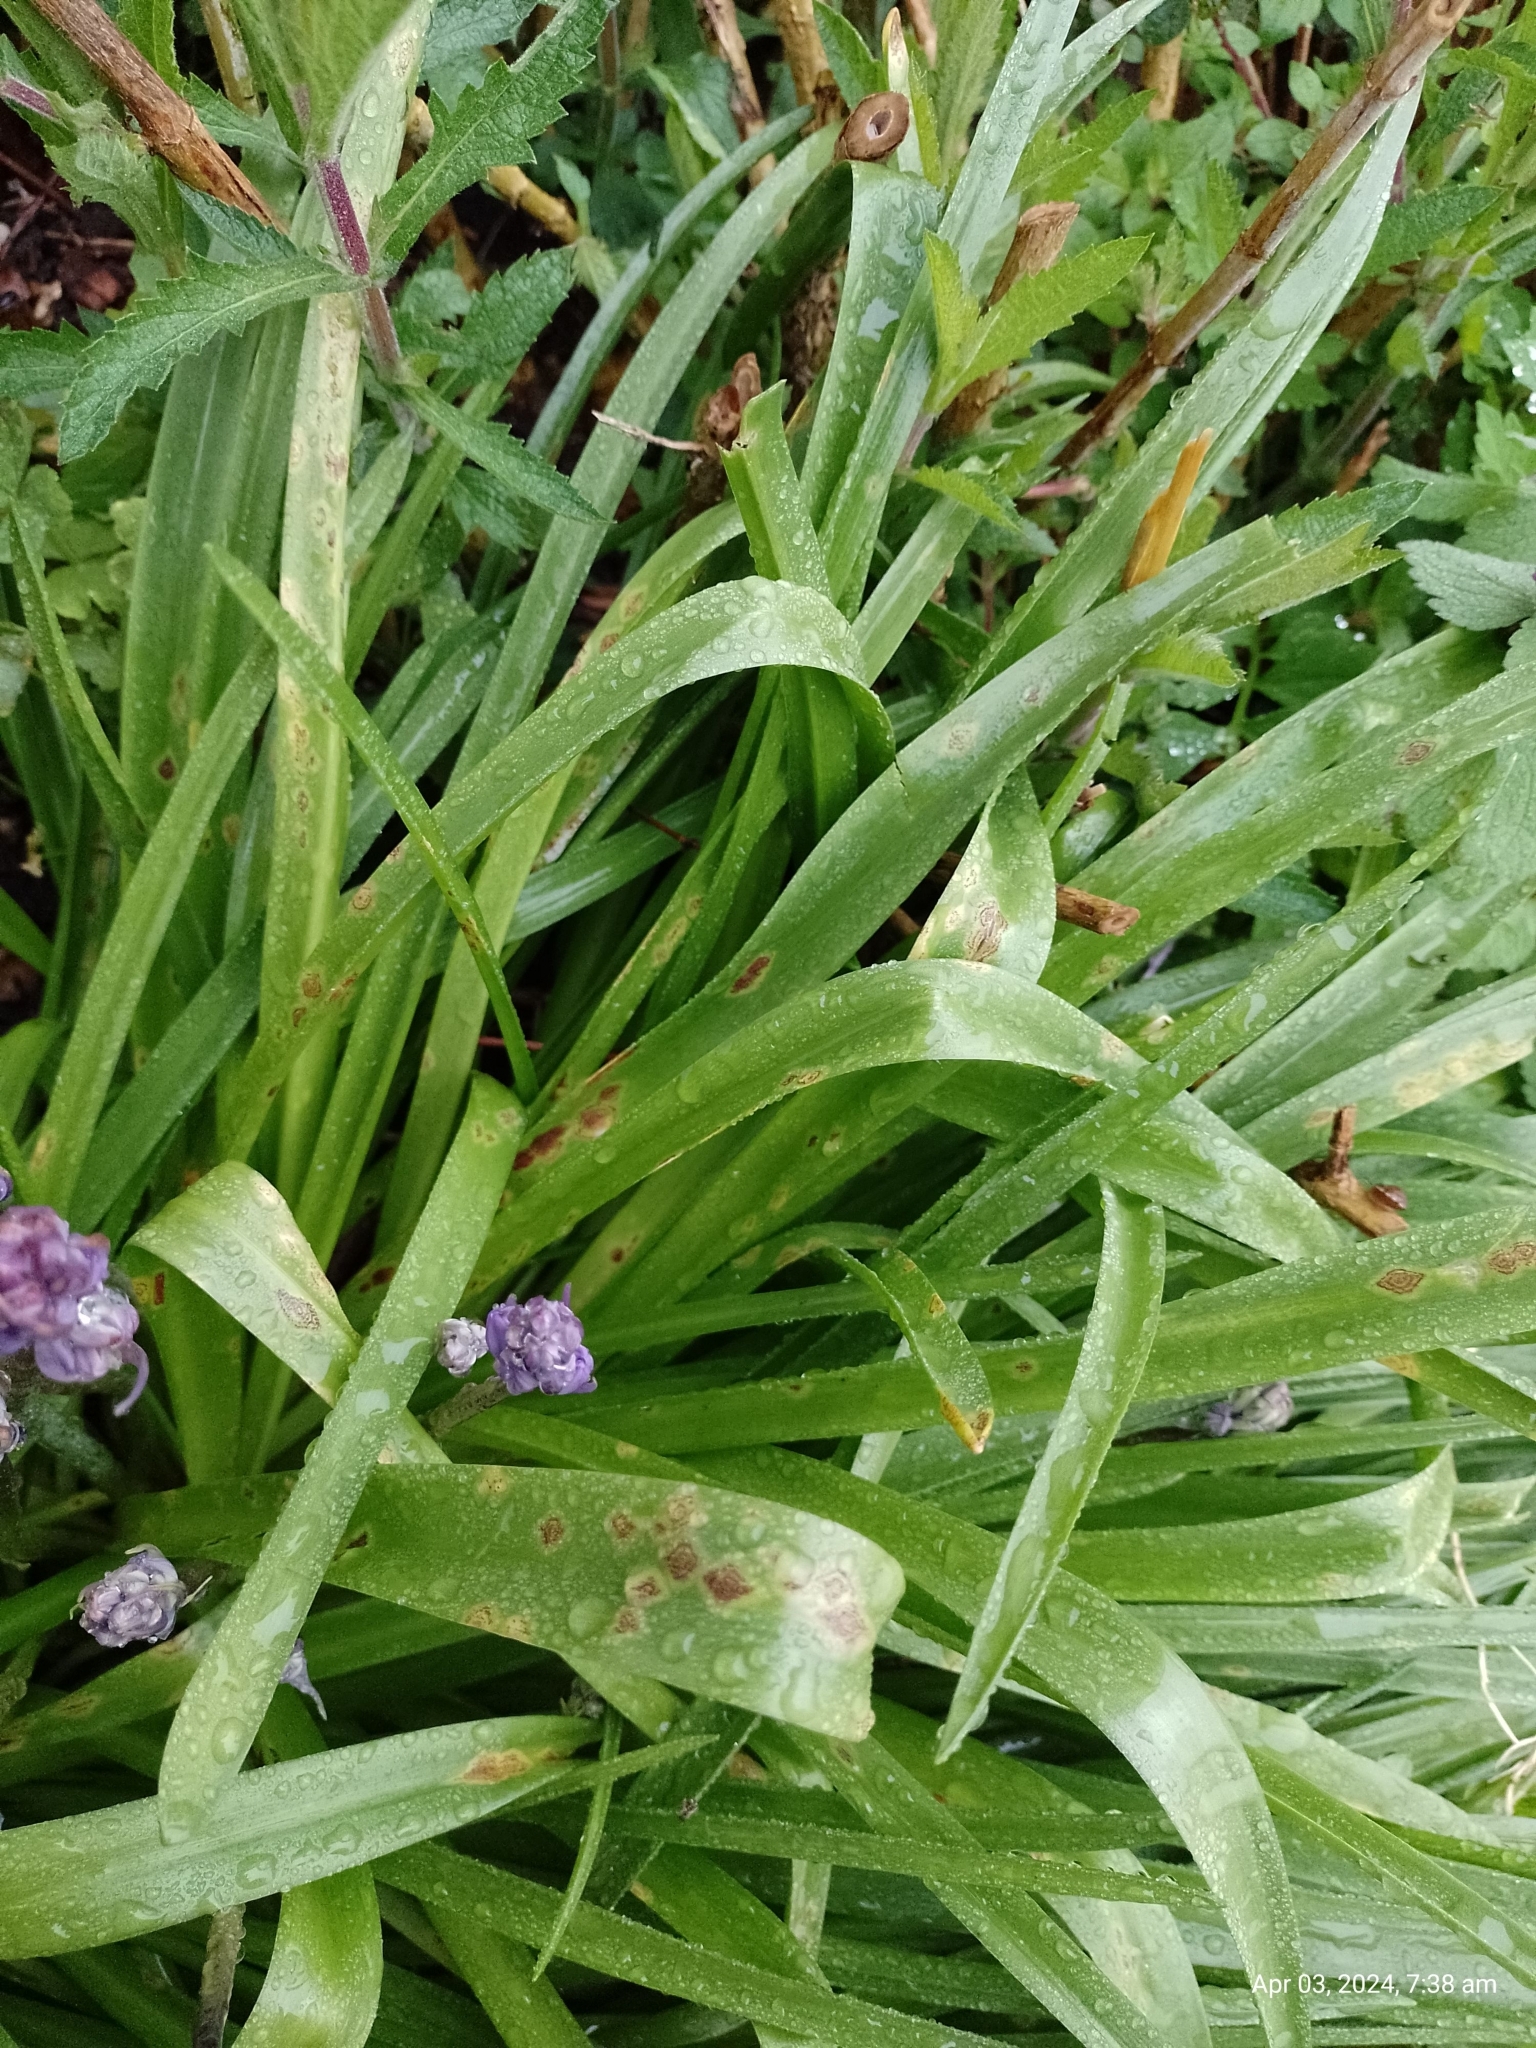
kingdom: Fungi
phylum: Basidiomycota
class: Pucciniomycetes
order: Pucciniales
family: Pucciniaceae
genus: Uromyces
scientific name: Uromyces hyacinthi
